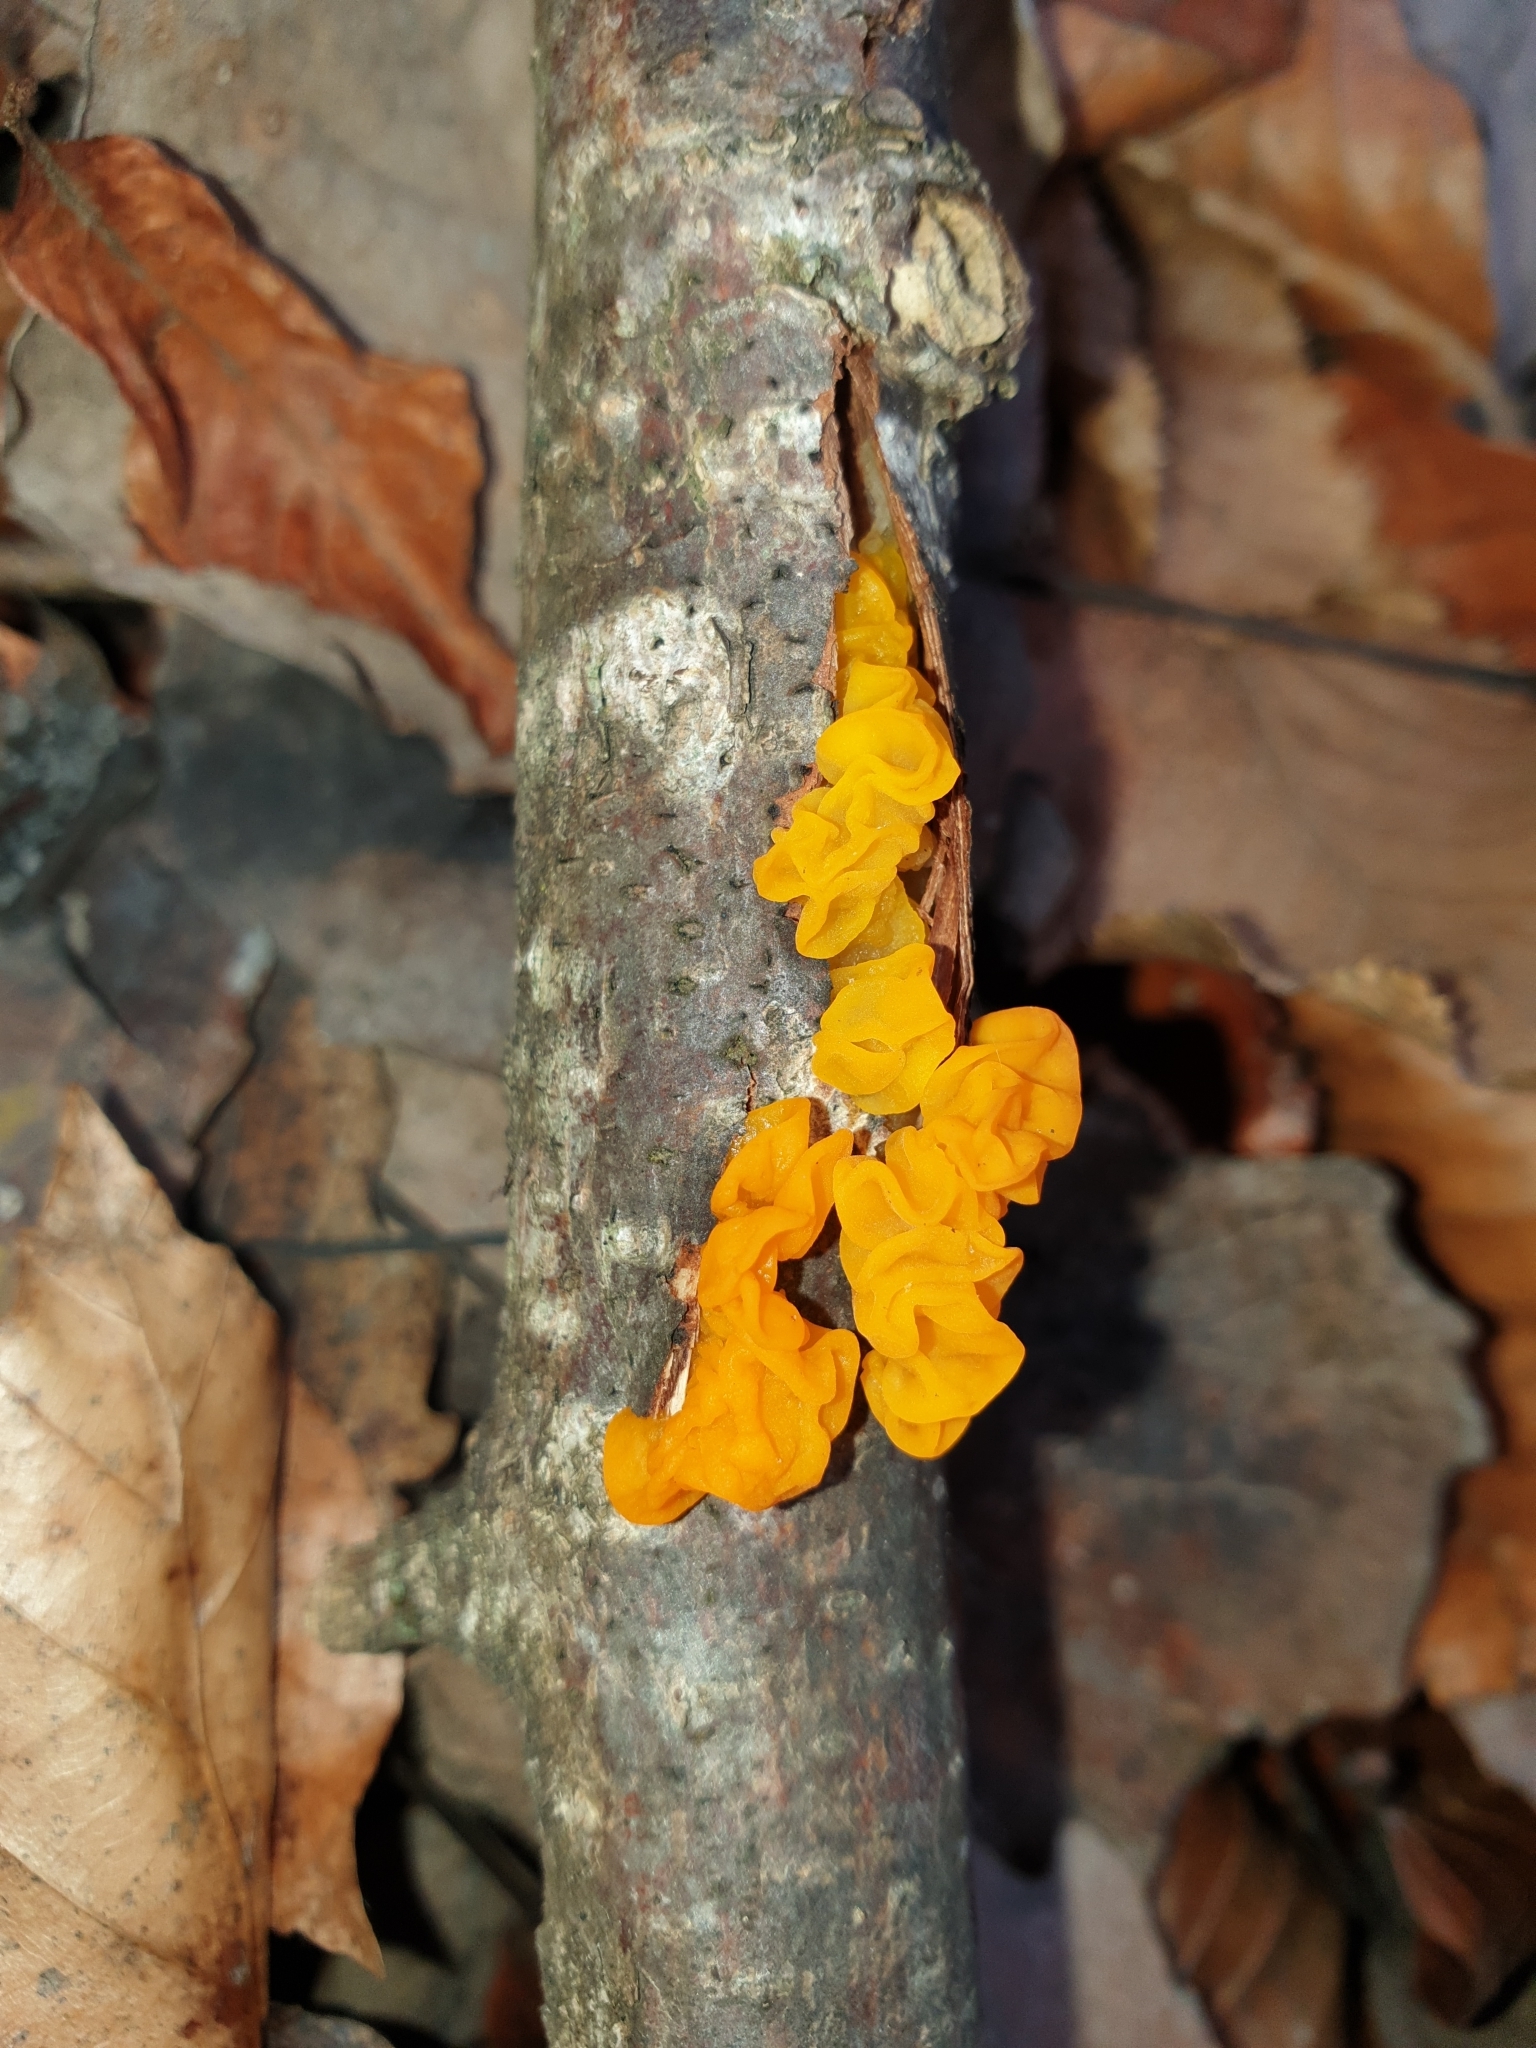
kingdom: Fungi
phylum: Basidiomycota
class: Tremellomycetes
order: Tremellales
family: Tremellaceae
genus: Tremella
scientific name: Tremella mesenterica
